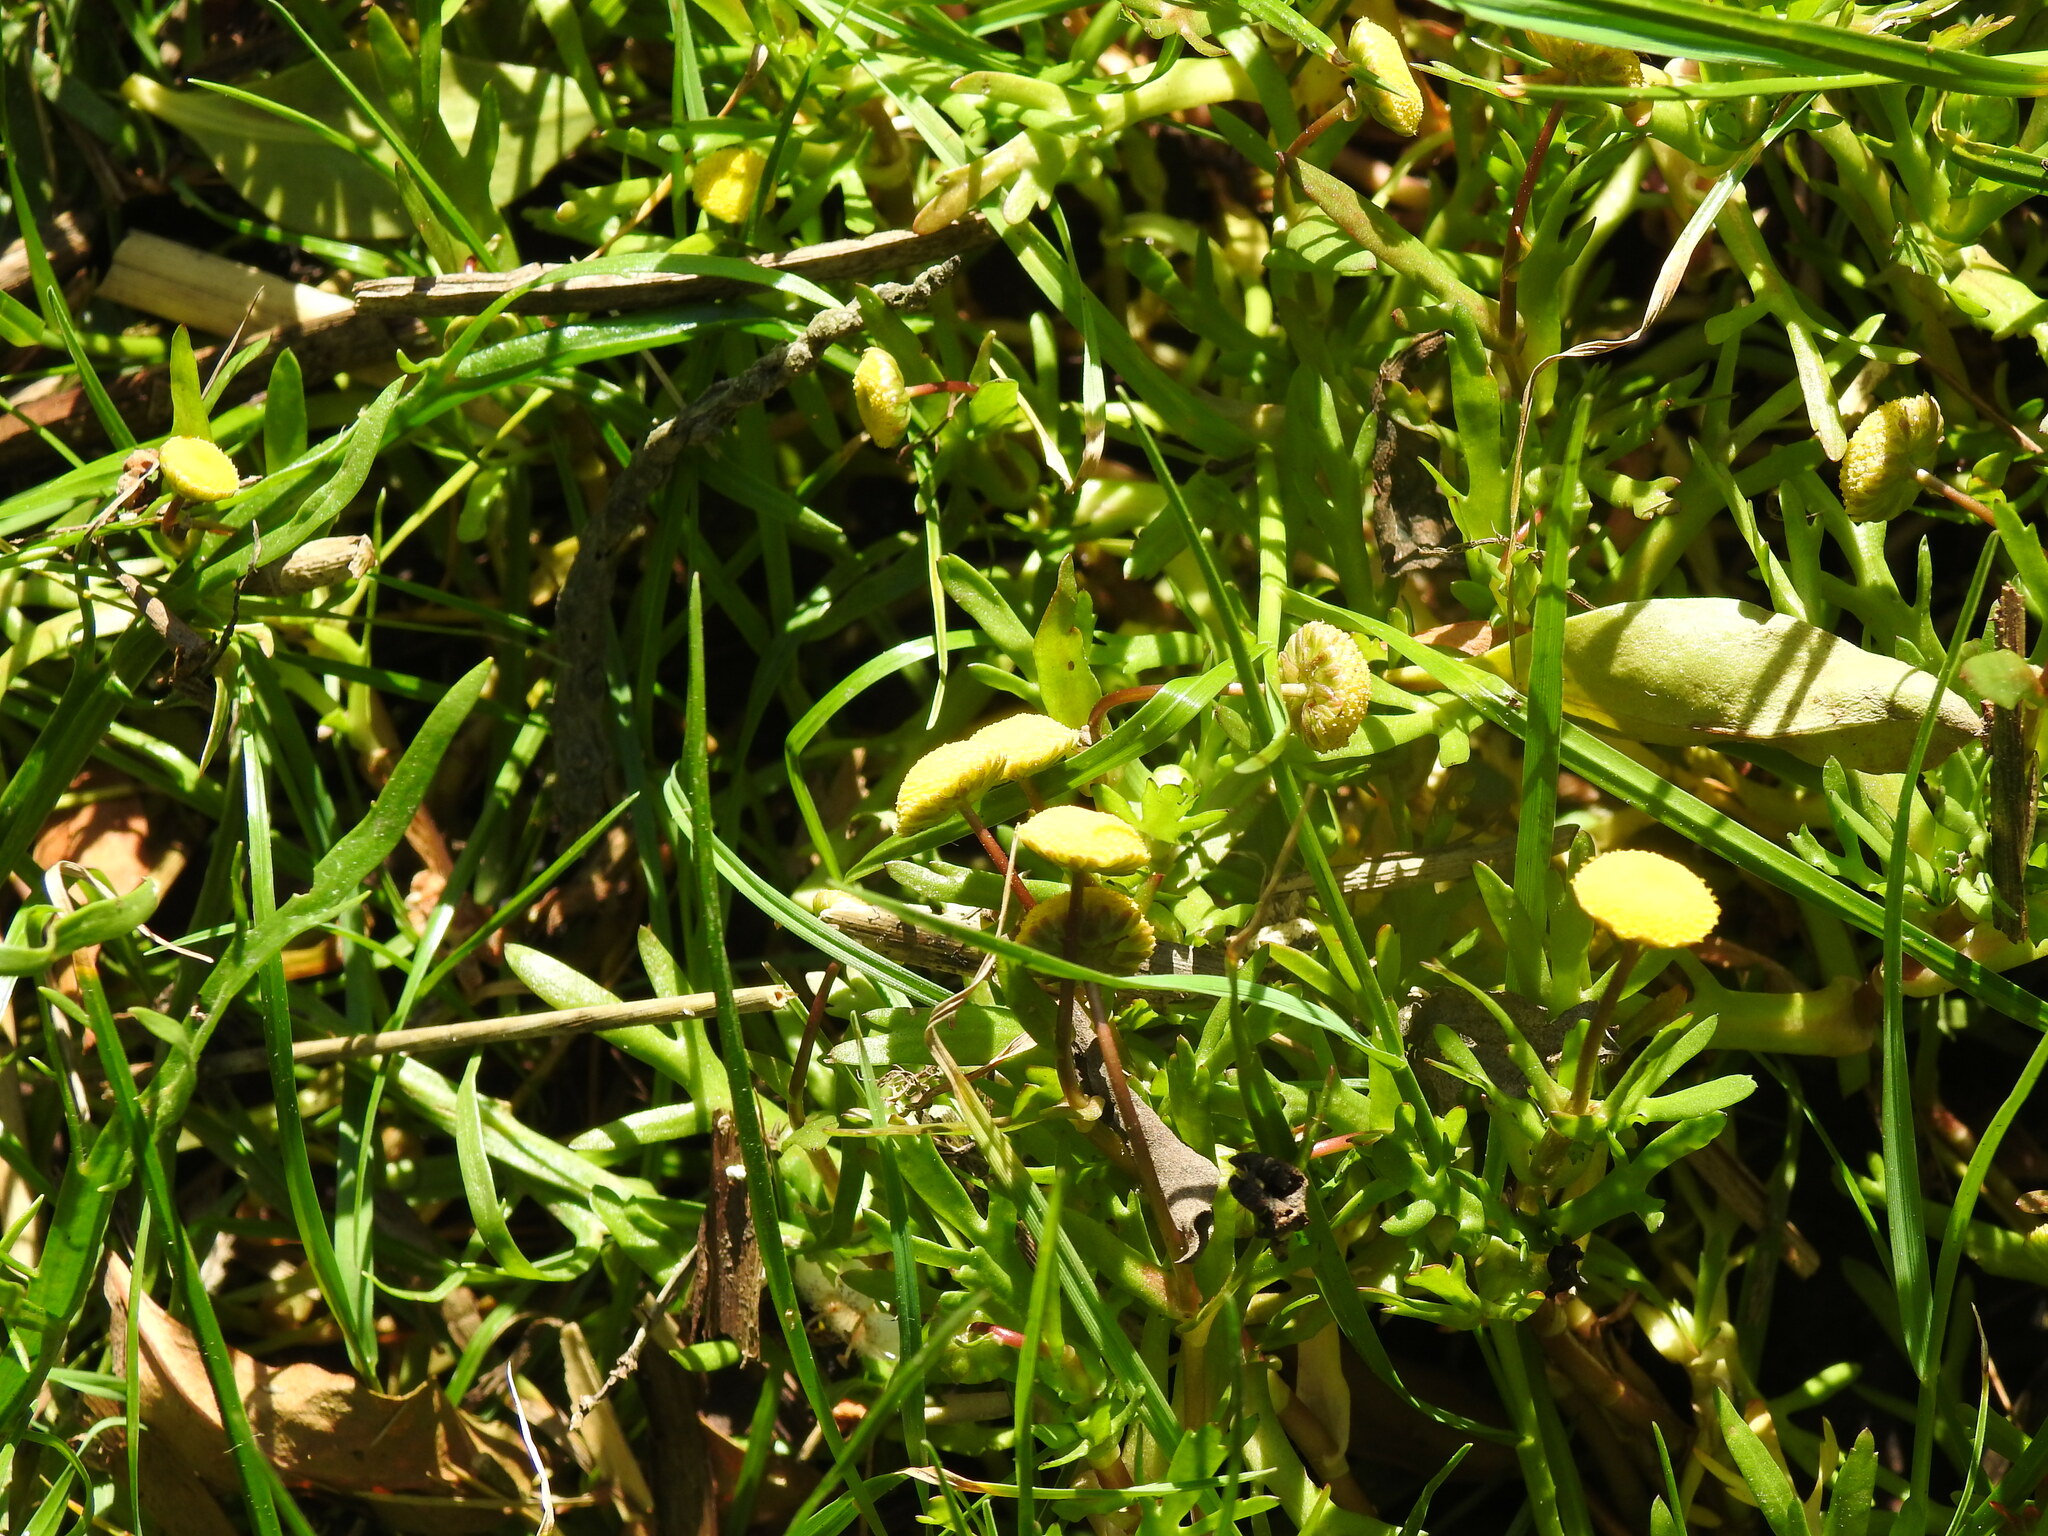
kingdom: Plantae
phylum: Tracheophyta
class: Magnoliopsida
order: Asterales
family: Asteraceae
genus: Cotula
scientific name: Cotula coronopifolia
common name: Buttonweed
